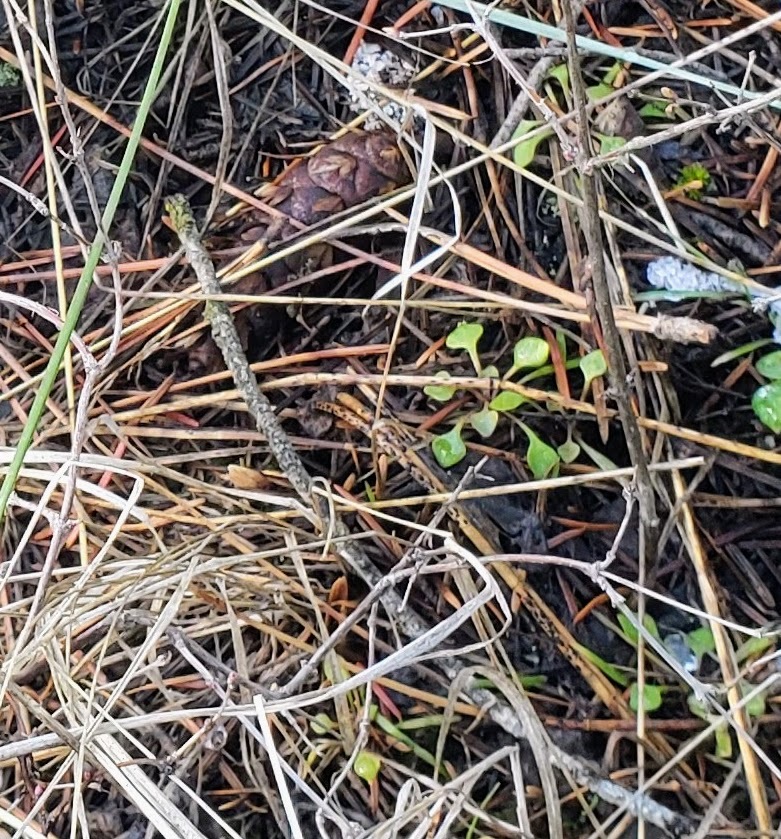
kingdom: Plantae
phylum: Tracheophyta
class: Magnoliopsida
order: Caryophyllales
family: Montiaceae
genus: Claytonia
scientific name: Claytonia rubra
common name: Erubescent miner's-lettuce
